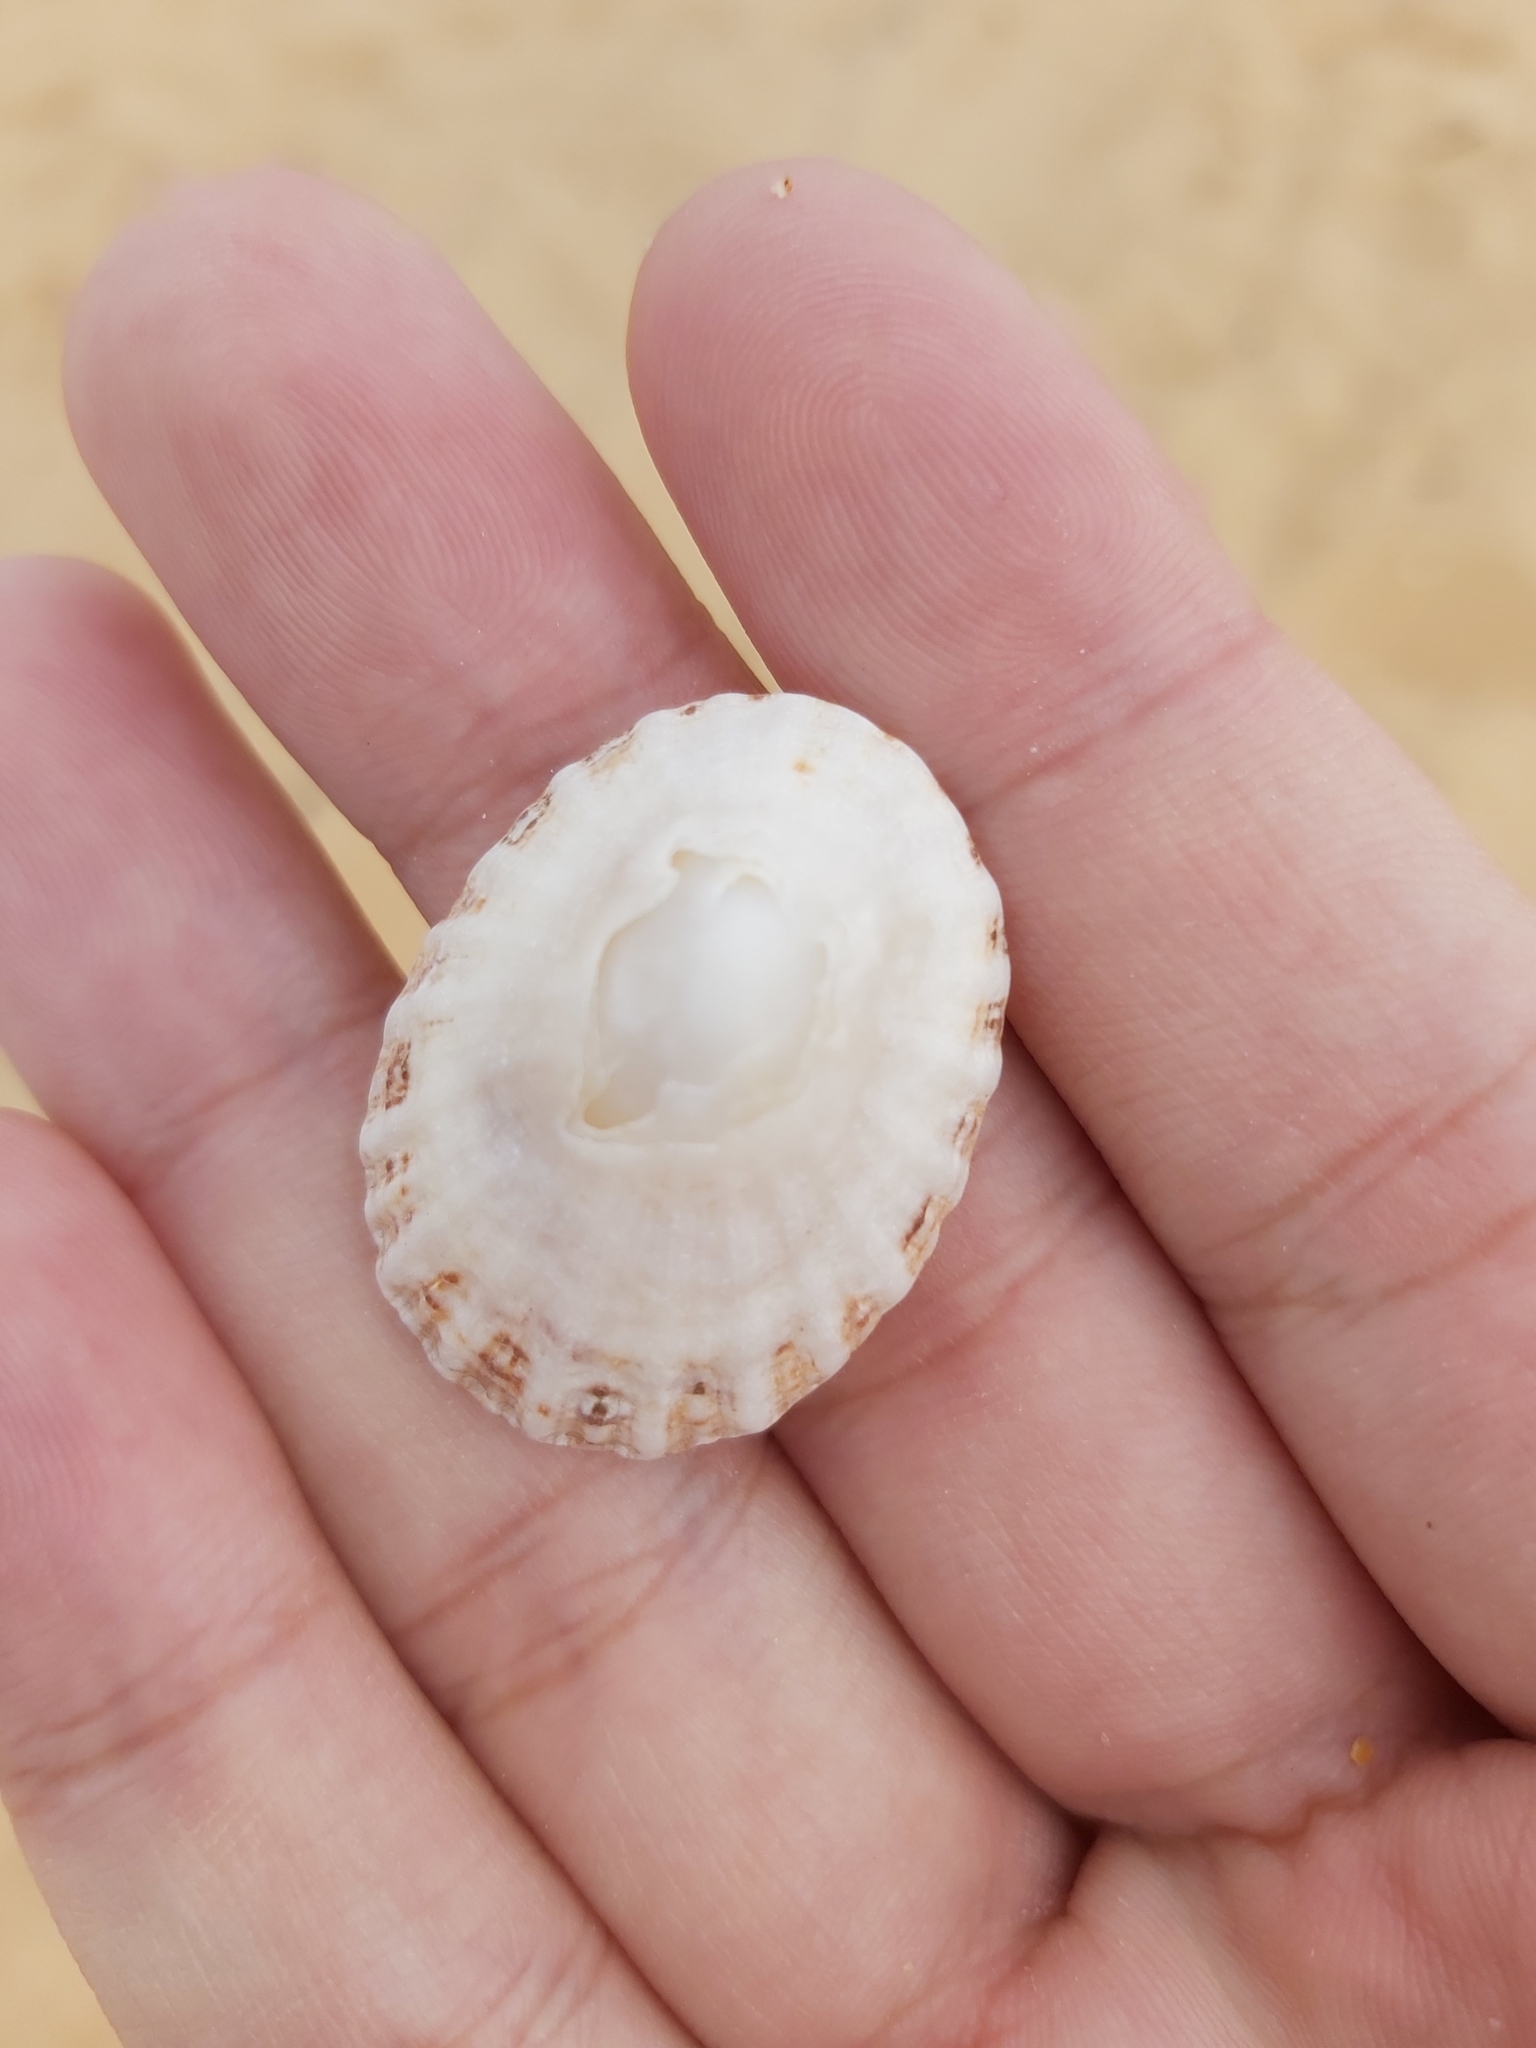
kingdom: Animalia
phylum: Mollusca
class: Gastropoda
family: Patellidae
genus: Scutellastra
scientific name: Scutellastra peronii
